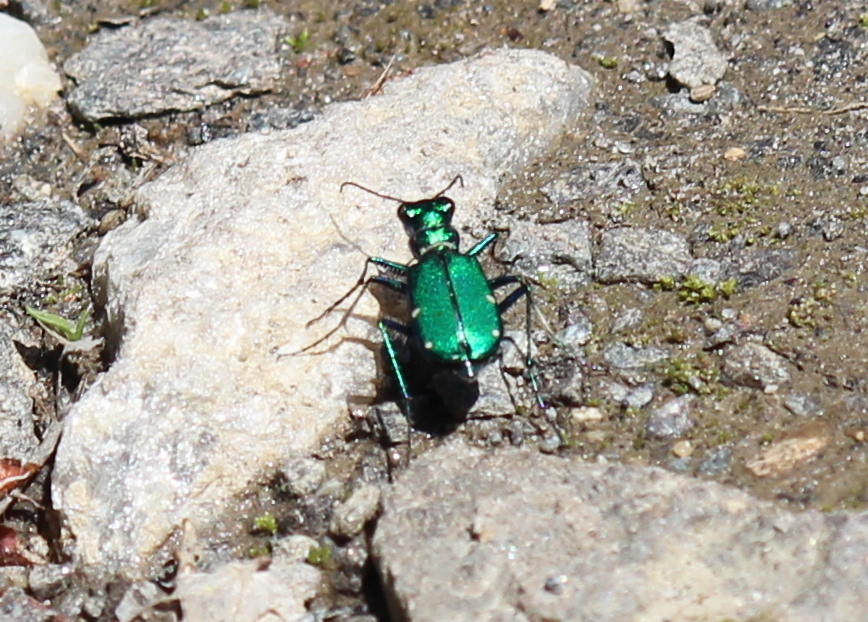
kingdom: Animalia
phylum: Arthropoda
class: Insecta
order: Coleoptera
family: Carabidae
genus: Cicindela
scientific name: Cicindela sexguttata
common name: Six-spotted tiger beetle
